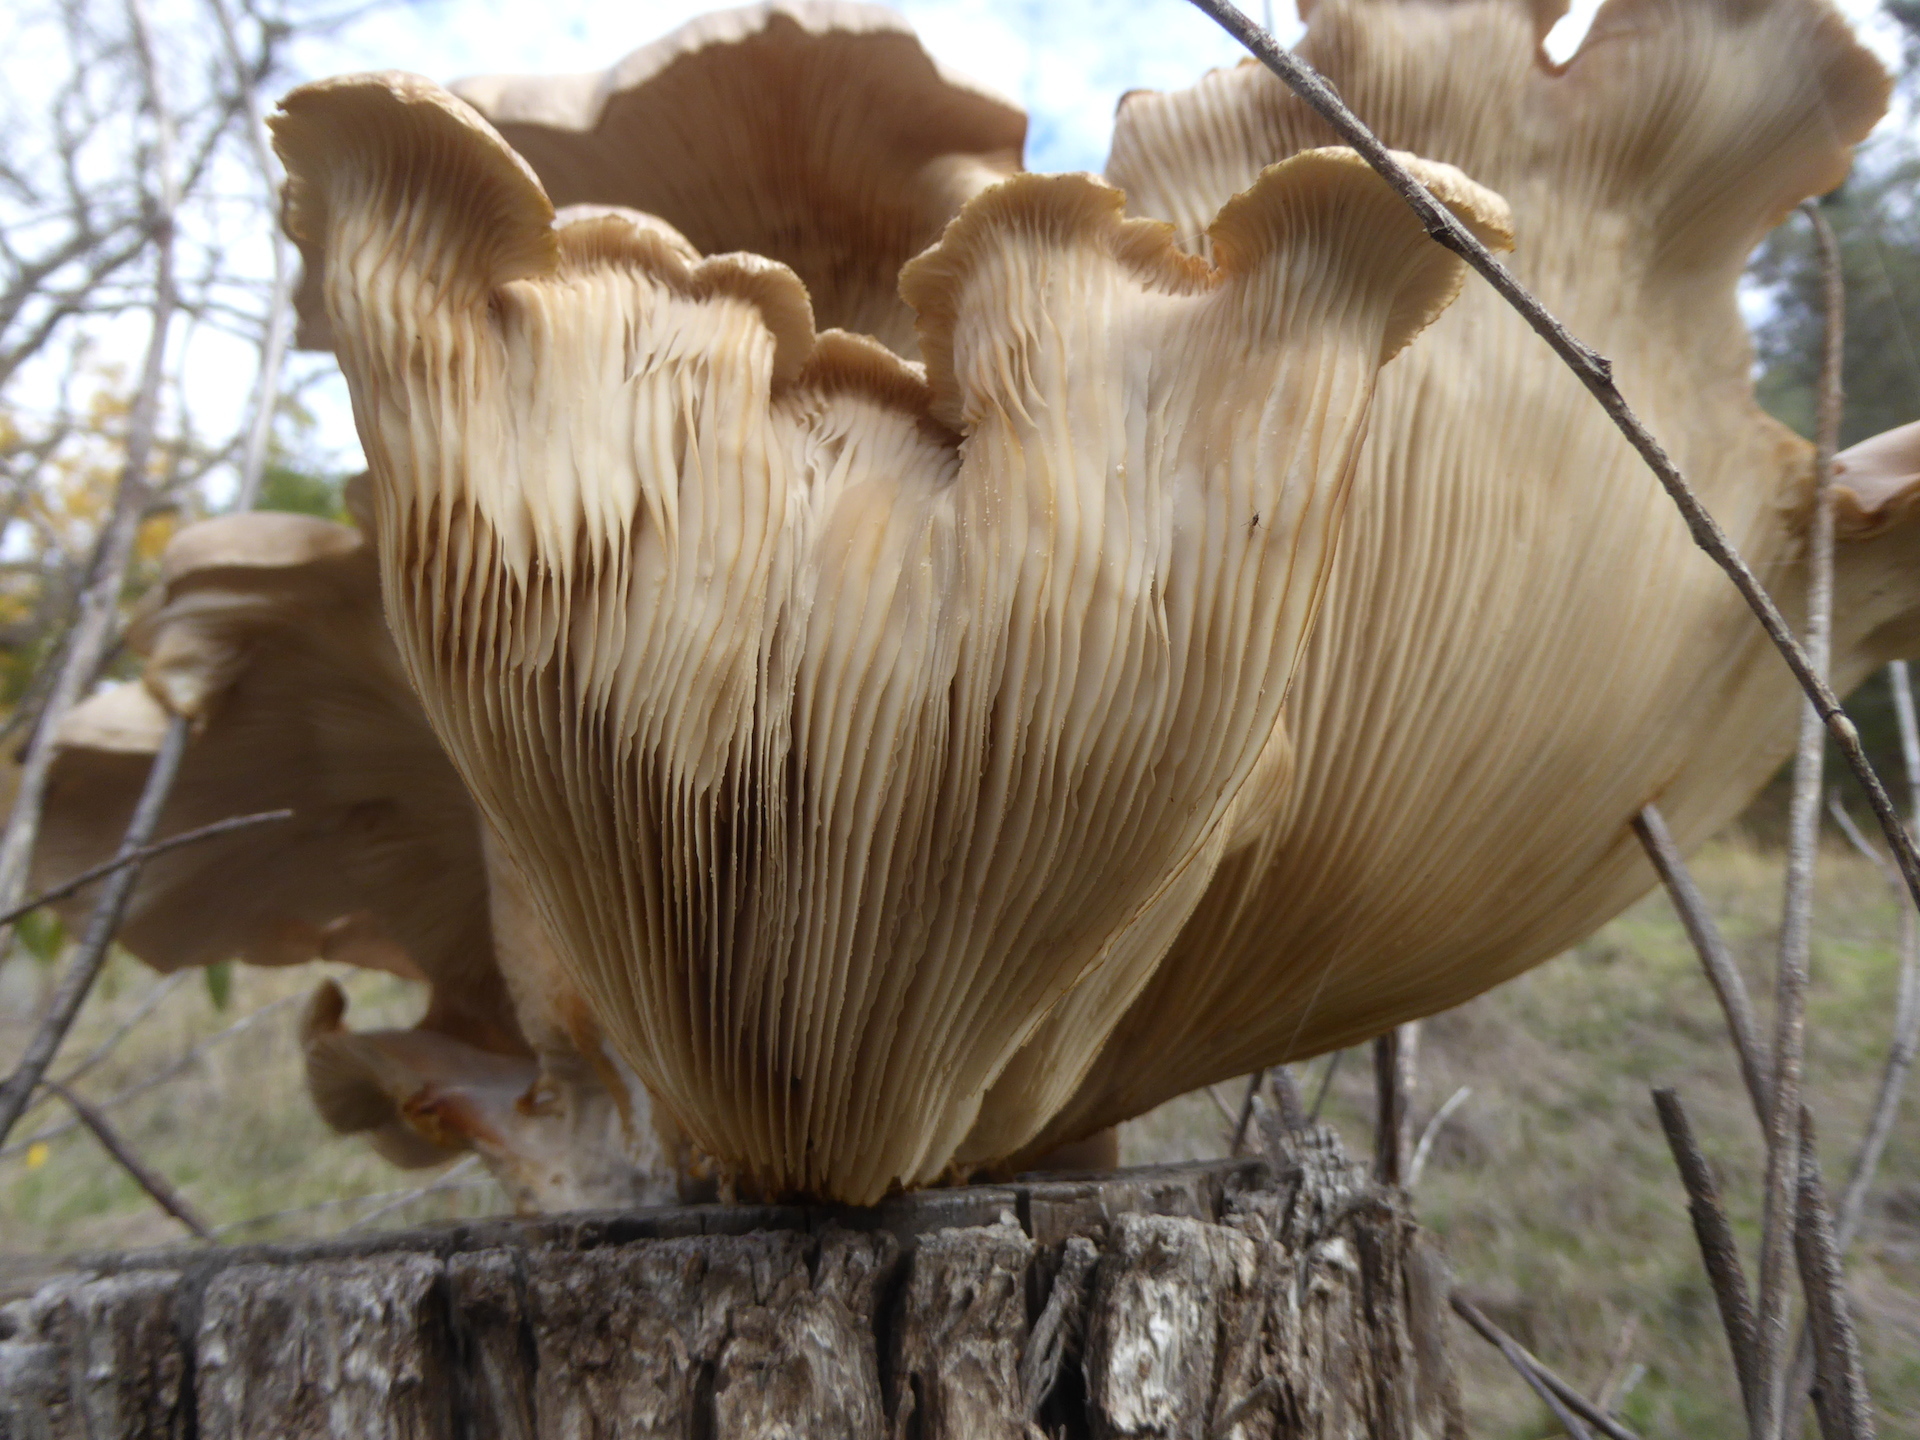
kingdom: Fungi
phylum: Basidiomycota
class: Agaricomycetes
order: Agaricales
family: Pleurotaceae
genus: Pleurotus
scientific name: Pleurotus ostreatus
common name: Oyster mushroom
